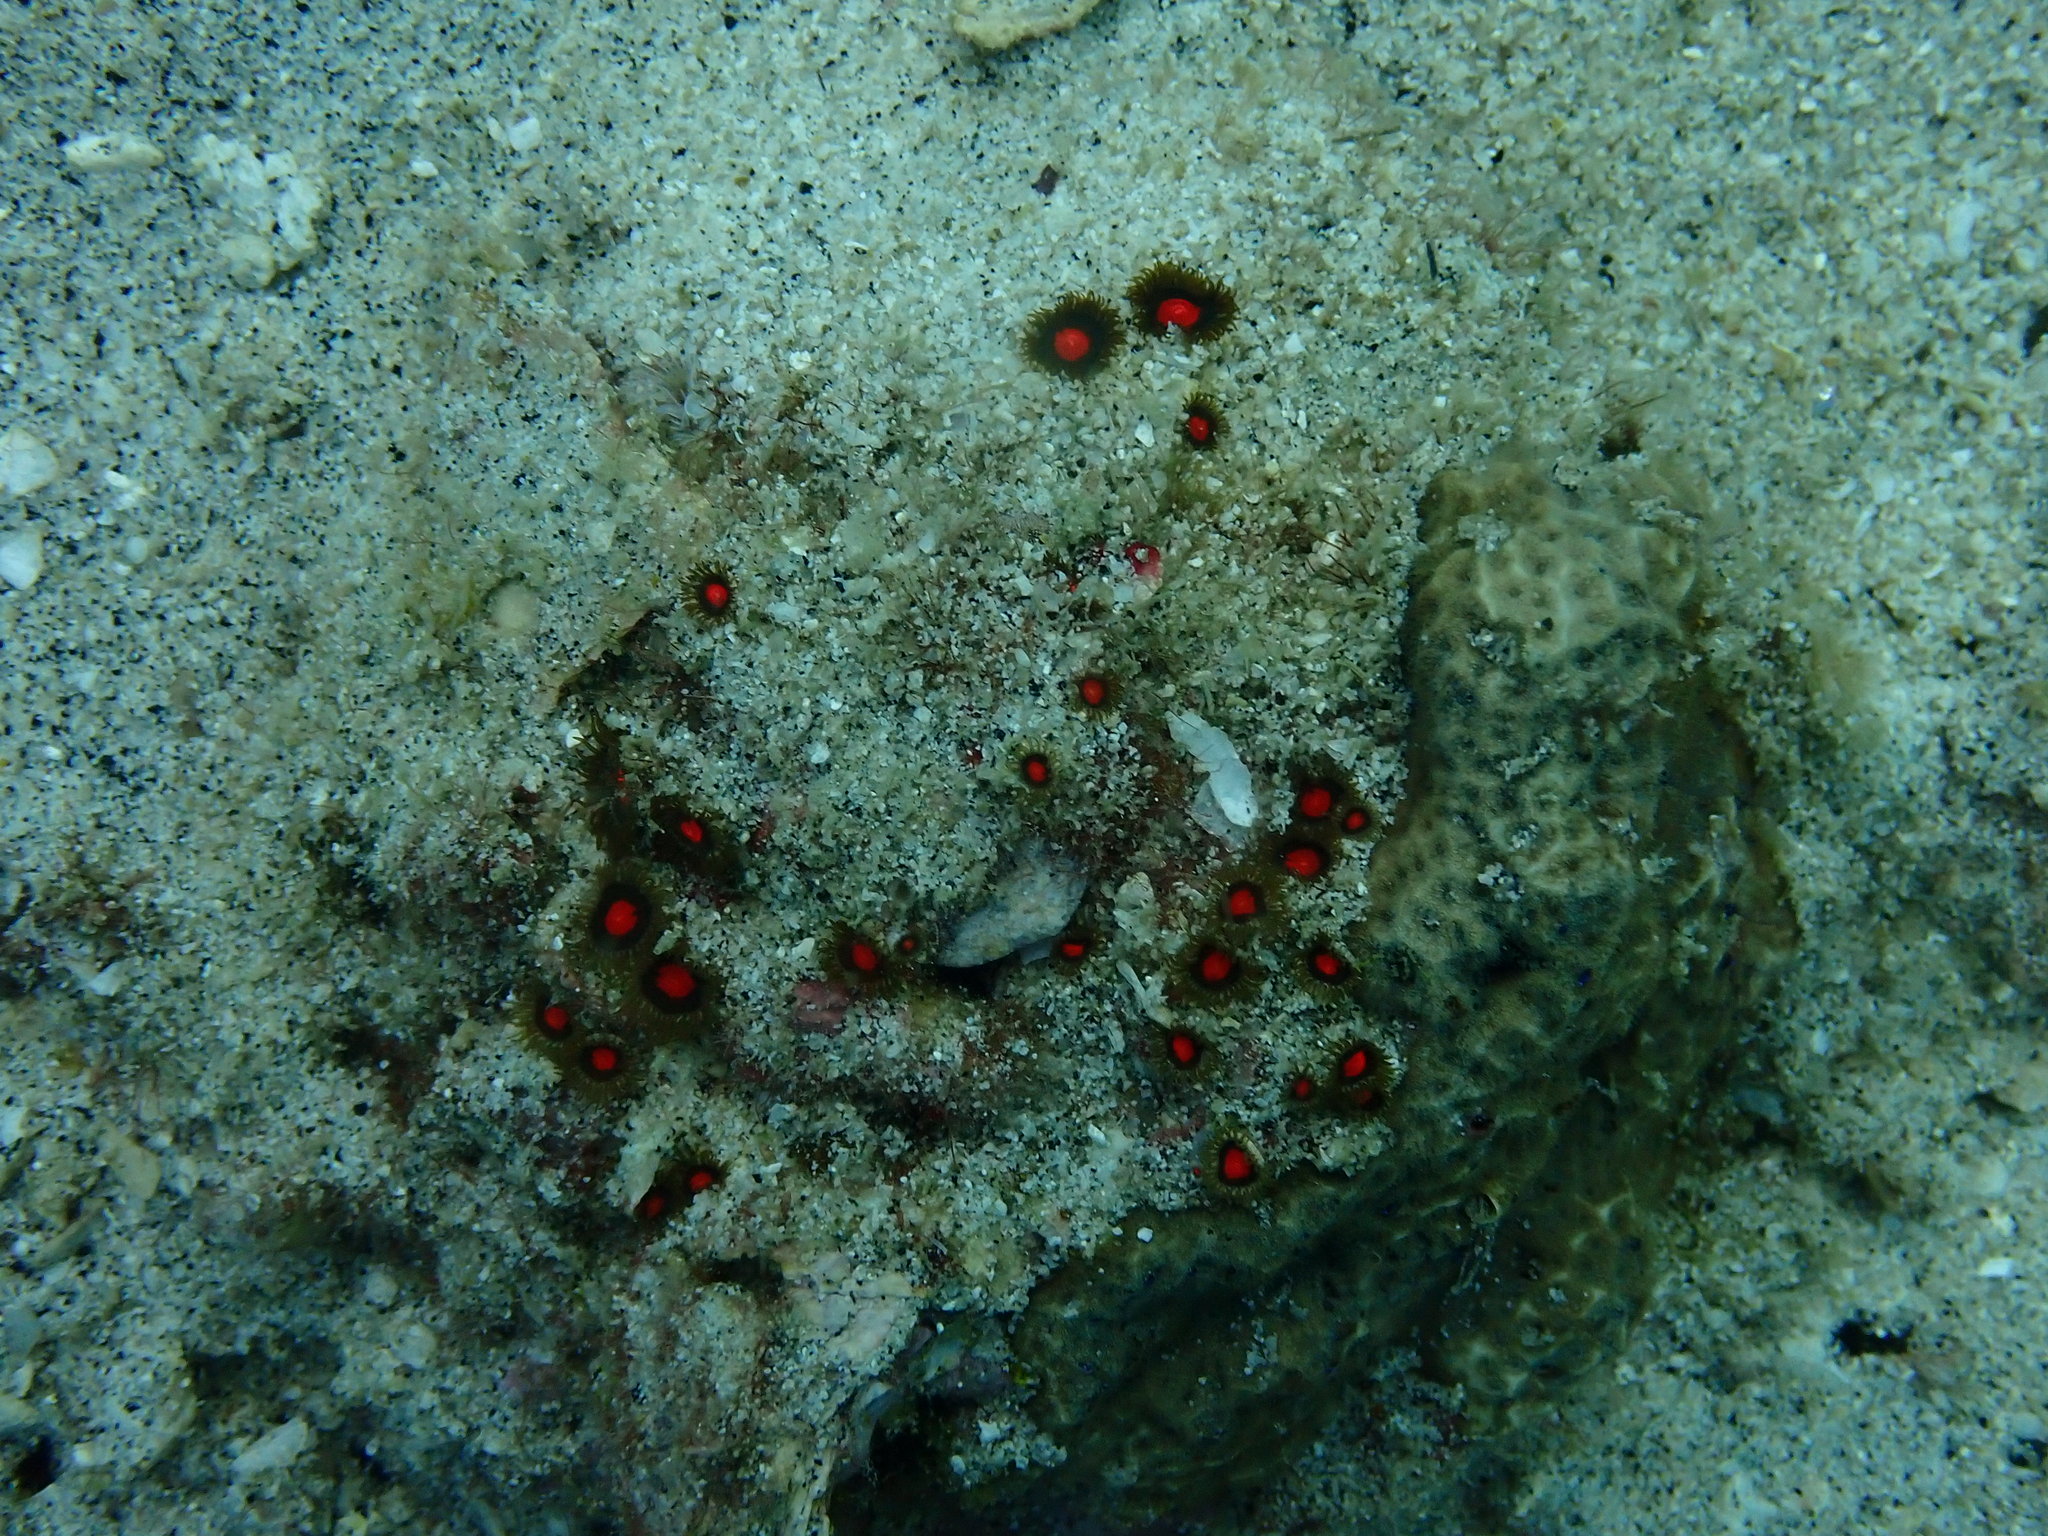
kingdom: Animalia
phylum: Cnidaria
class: Anthozoa
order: Zoantharia
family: Zoanthidae
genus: Zoanthus
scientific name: Zoanthus sansibaricus
